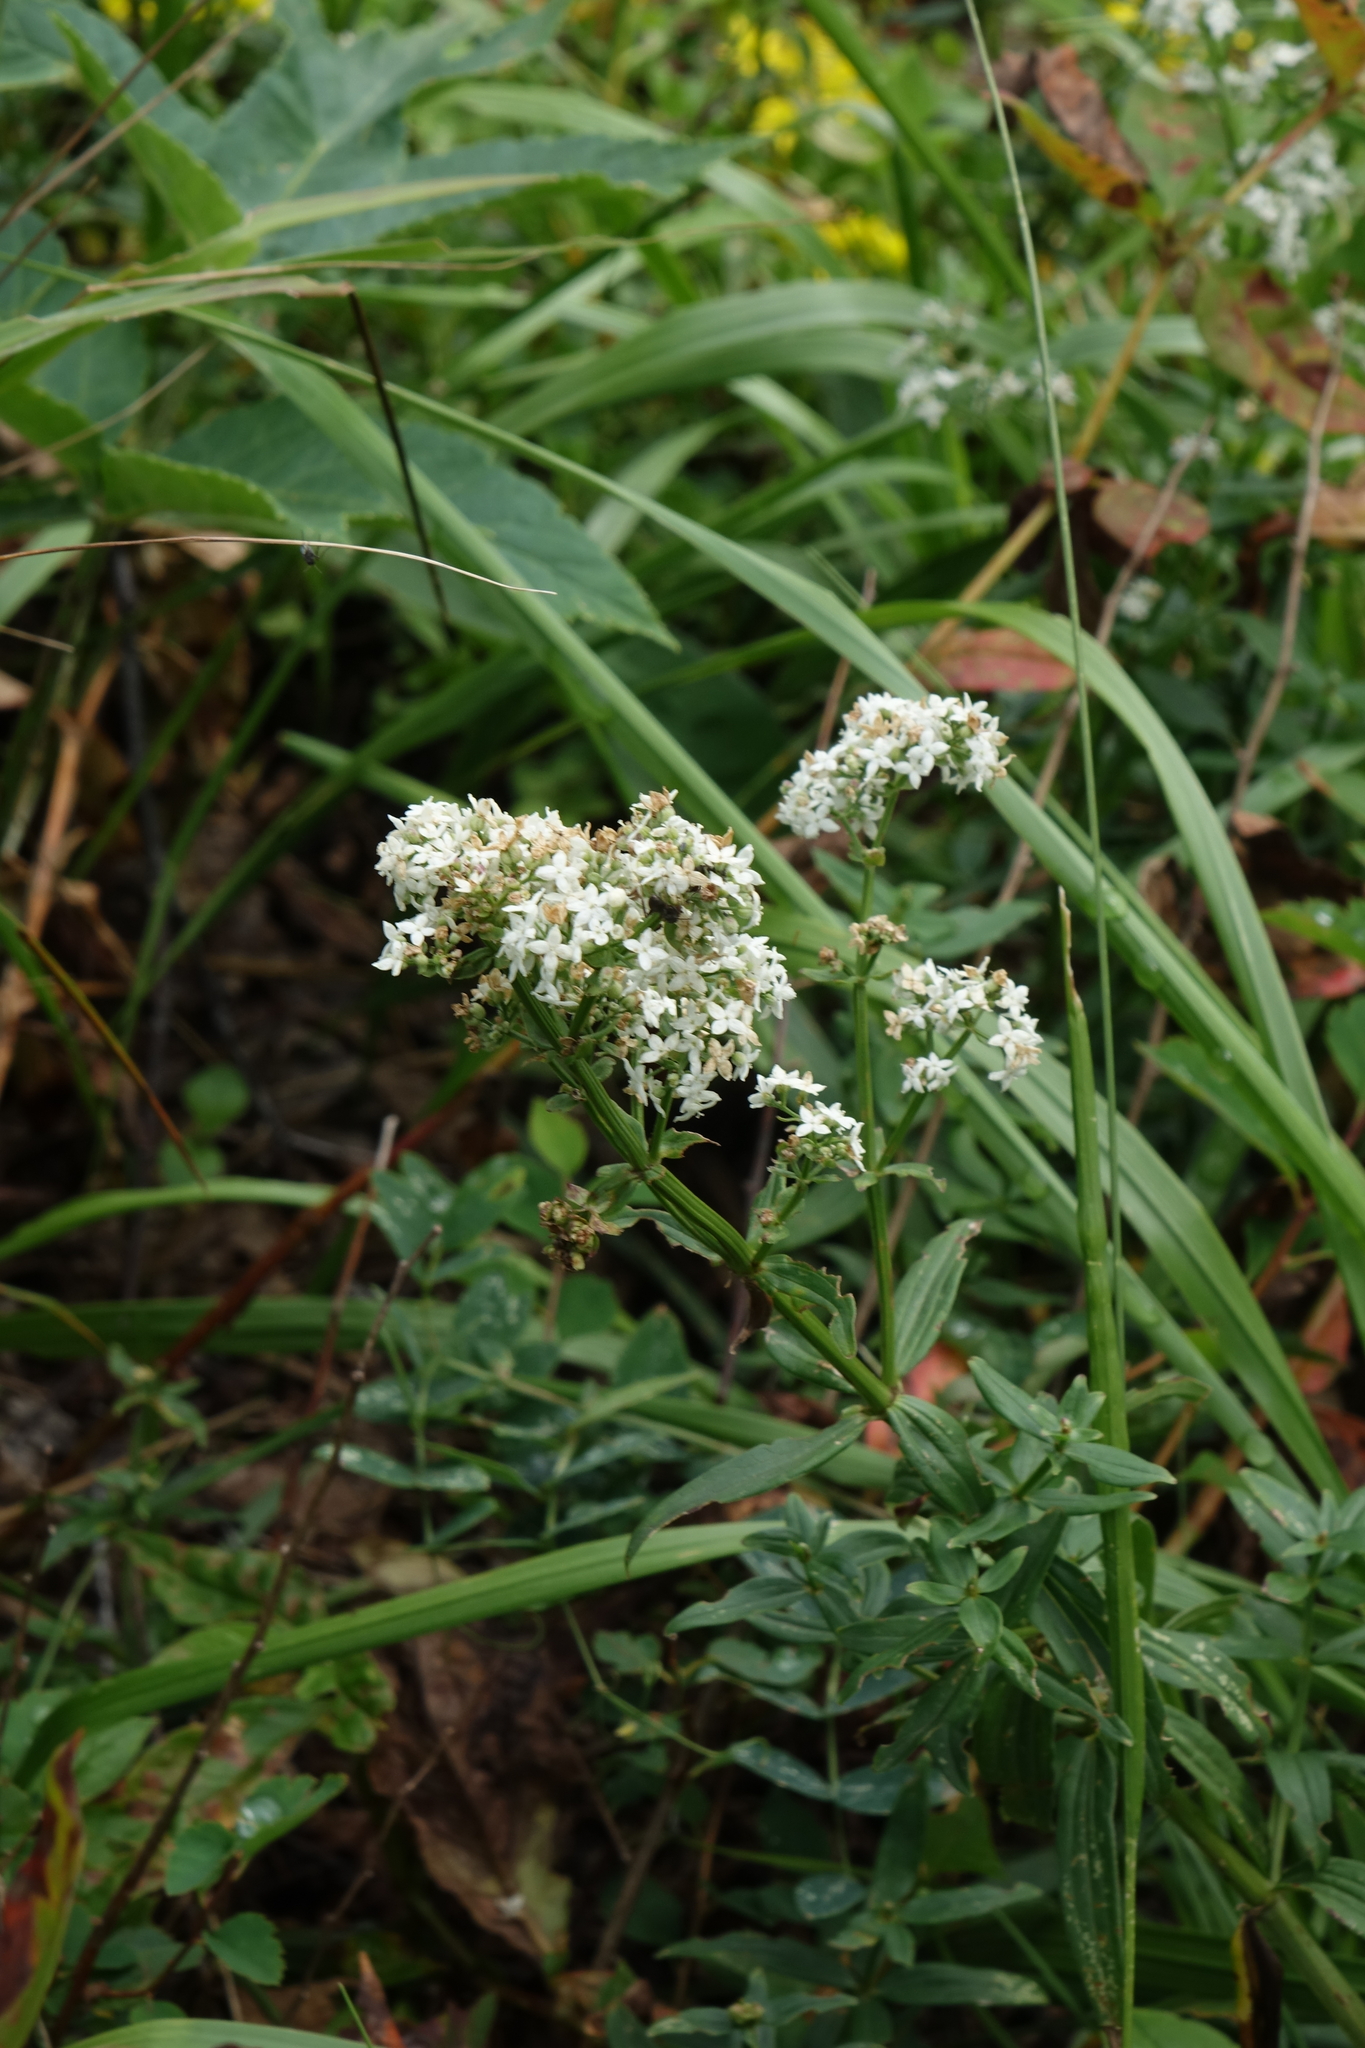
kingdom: Plantae
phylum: Tracheophyta
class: Magnoliopsida
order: Gentianales
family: Rubiaceae
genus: Galium
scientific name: Galium boreale
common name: Northern bedstraw
